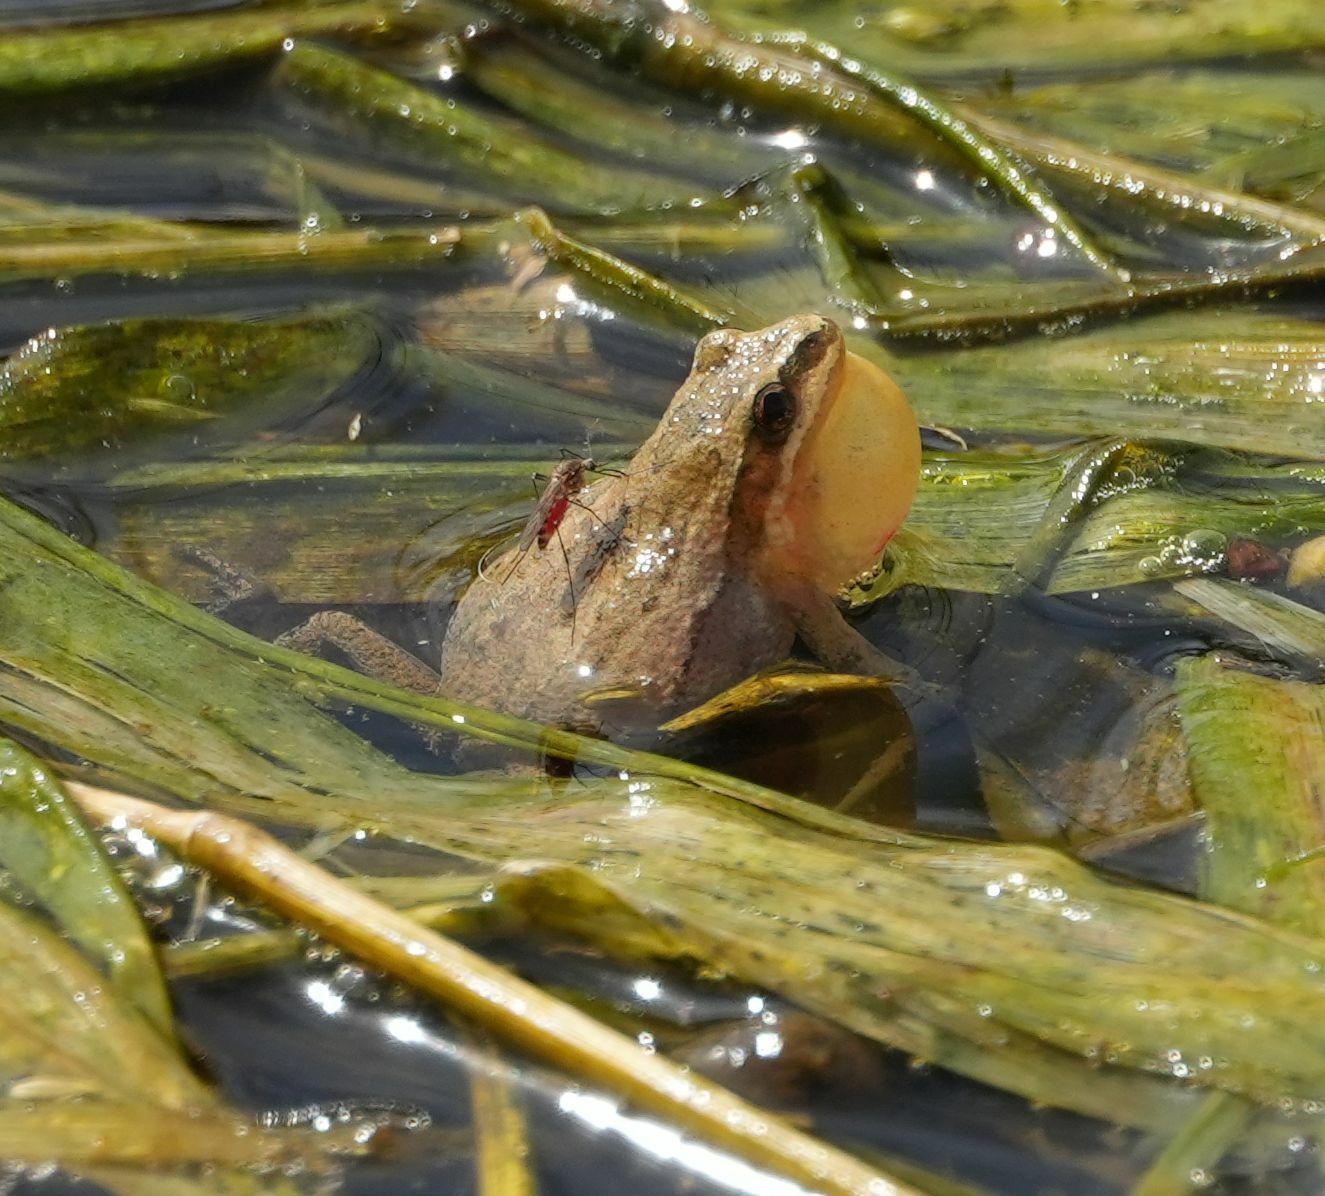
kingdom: Animalia
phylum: Chordata
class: Amphibia
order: Anura
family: Hylidae
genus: Pseudacris
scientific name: Pseudacris maculata
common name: Boreal chorus frog
